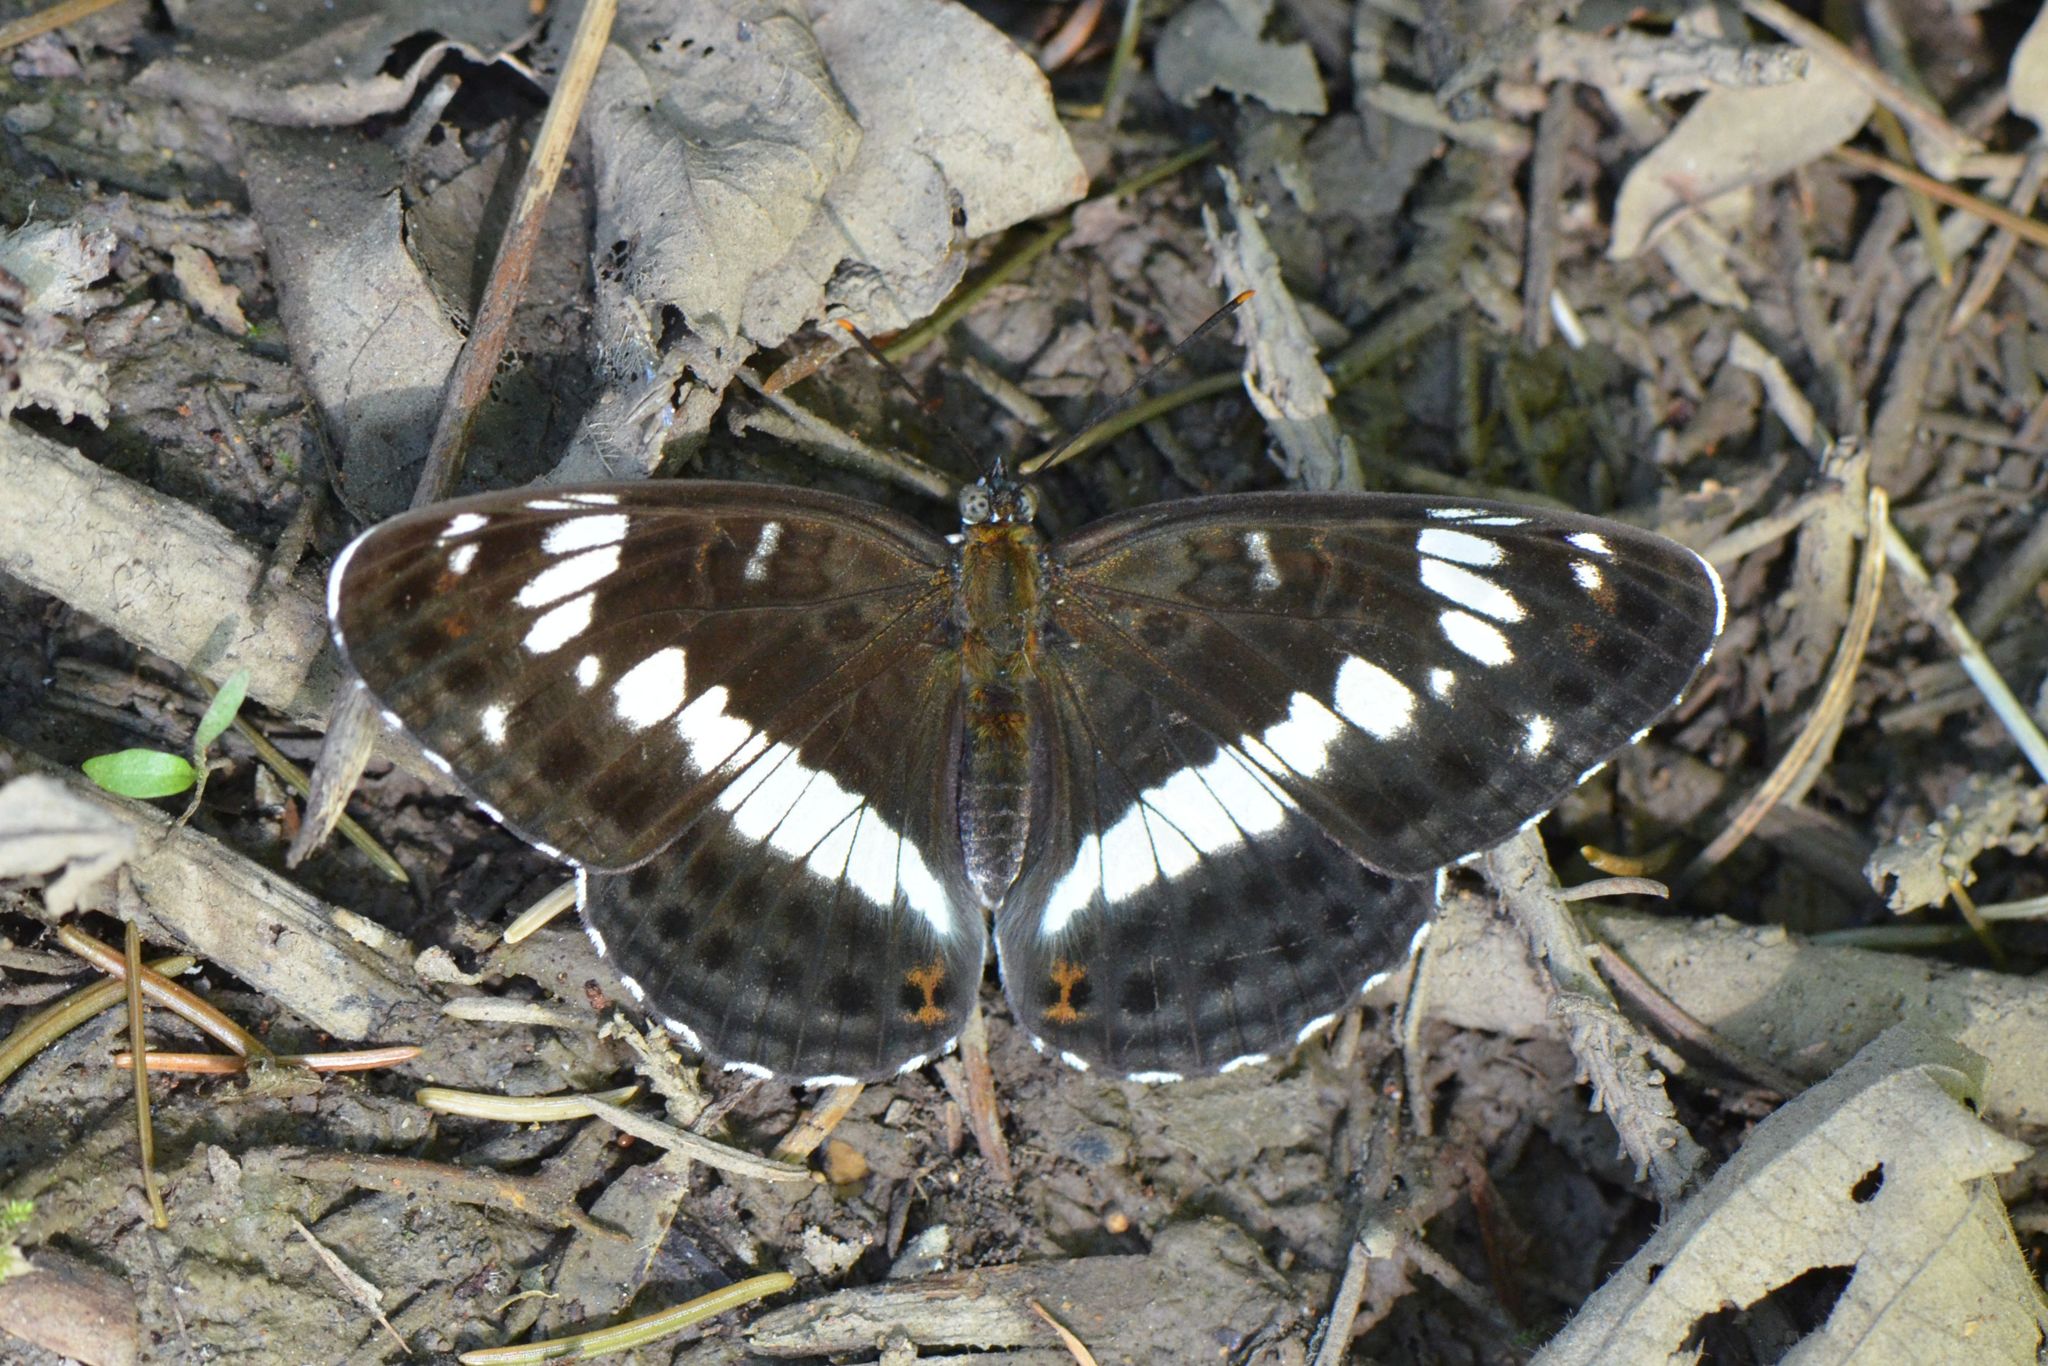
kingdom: Animalia
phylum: Arthropoda
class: Insecta
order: Lepidoptera
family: Nymphalidae
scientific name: Nymphalidae
